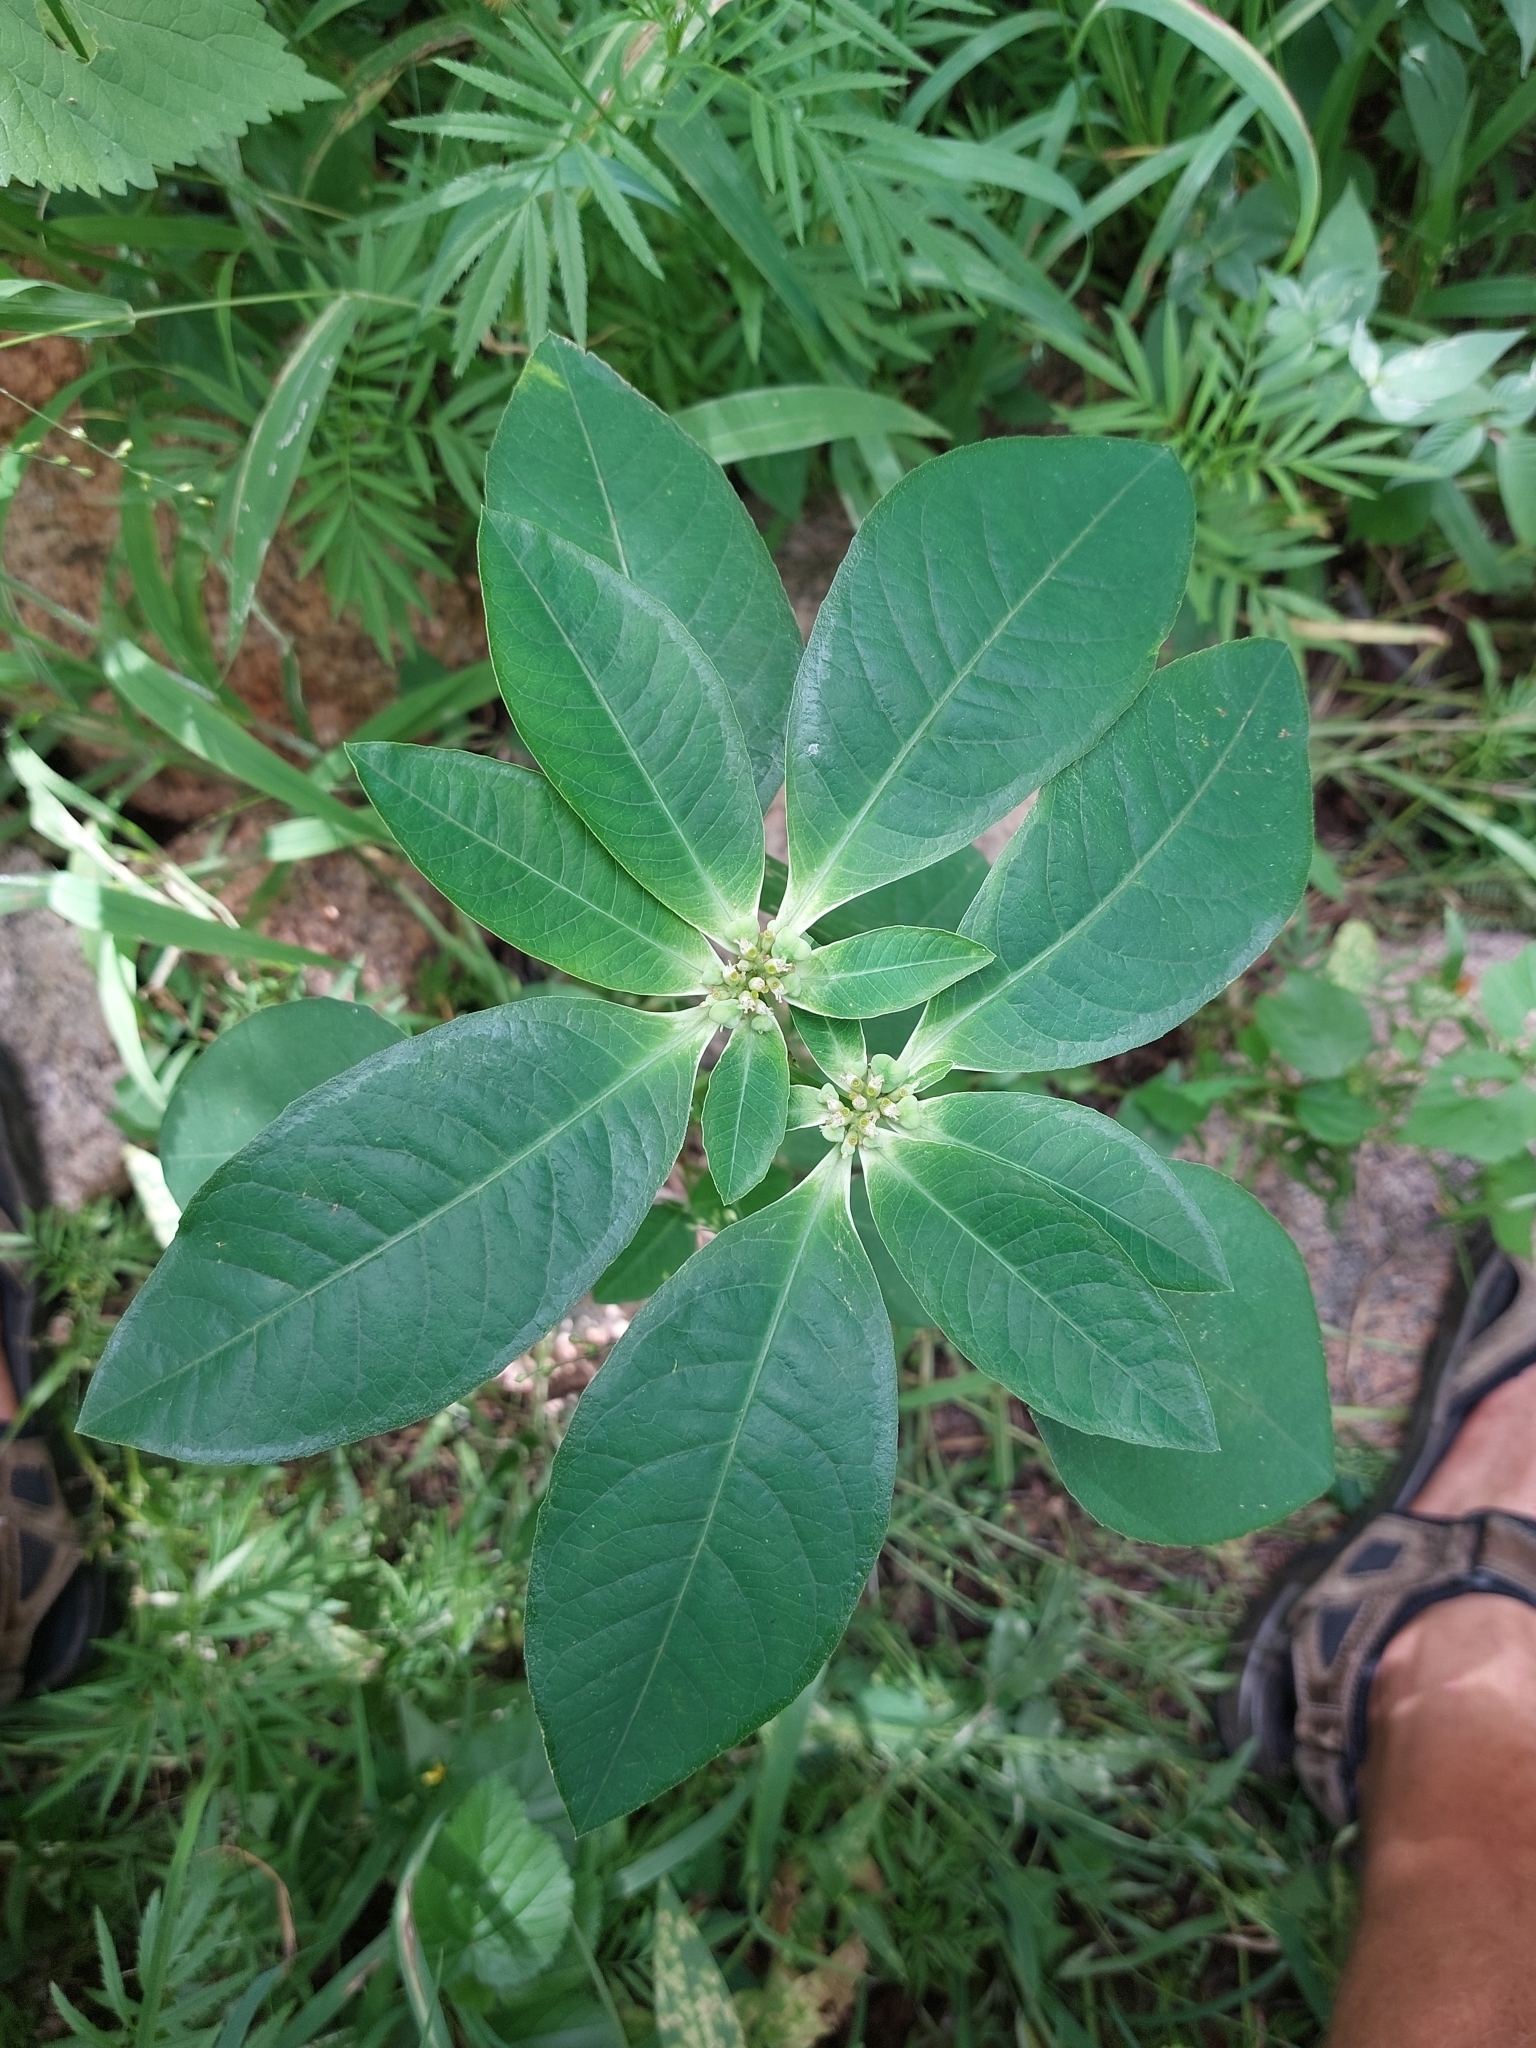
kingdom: Plantae
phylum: Tracheophyta
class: Magnoliopsida
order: Malpighiales
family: Euphorbiaceae
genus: Euphorbia
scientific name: Euphorbia heterophylla
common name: Mexican fireplant
